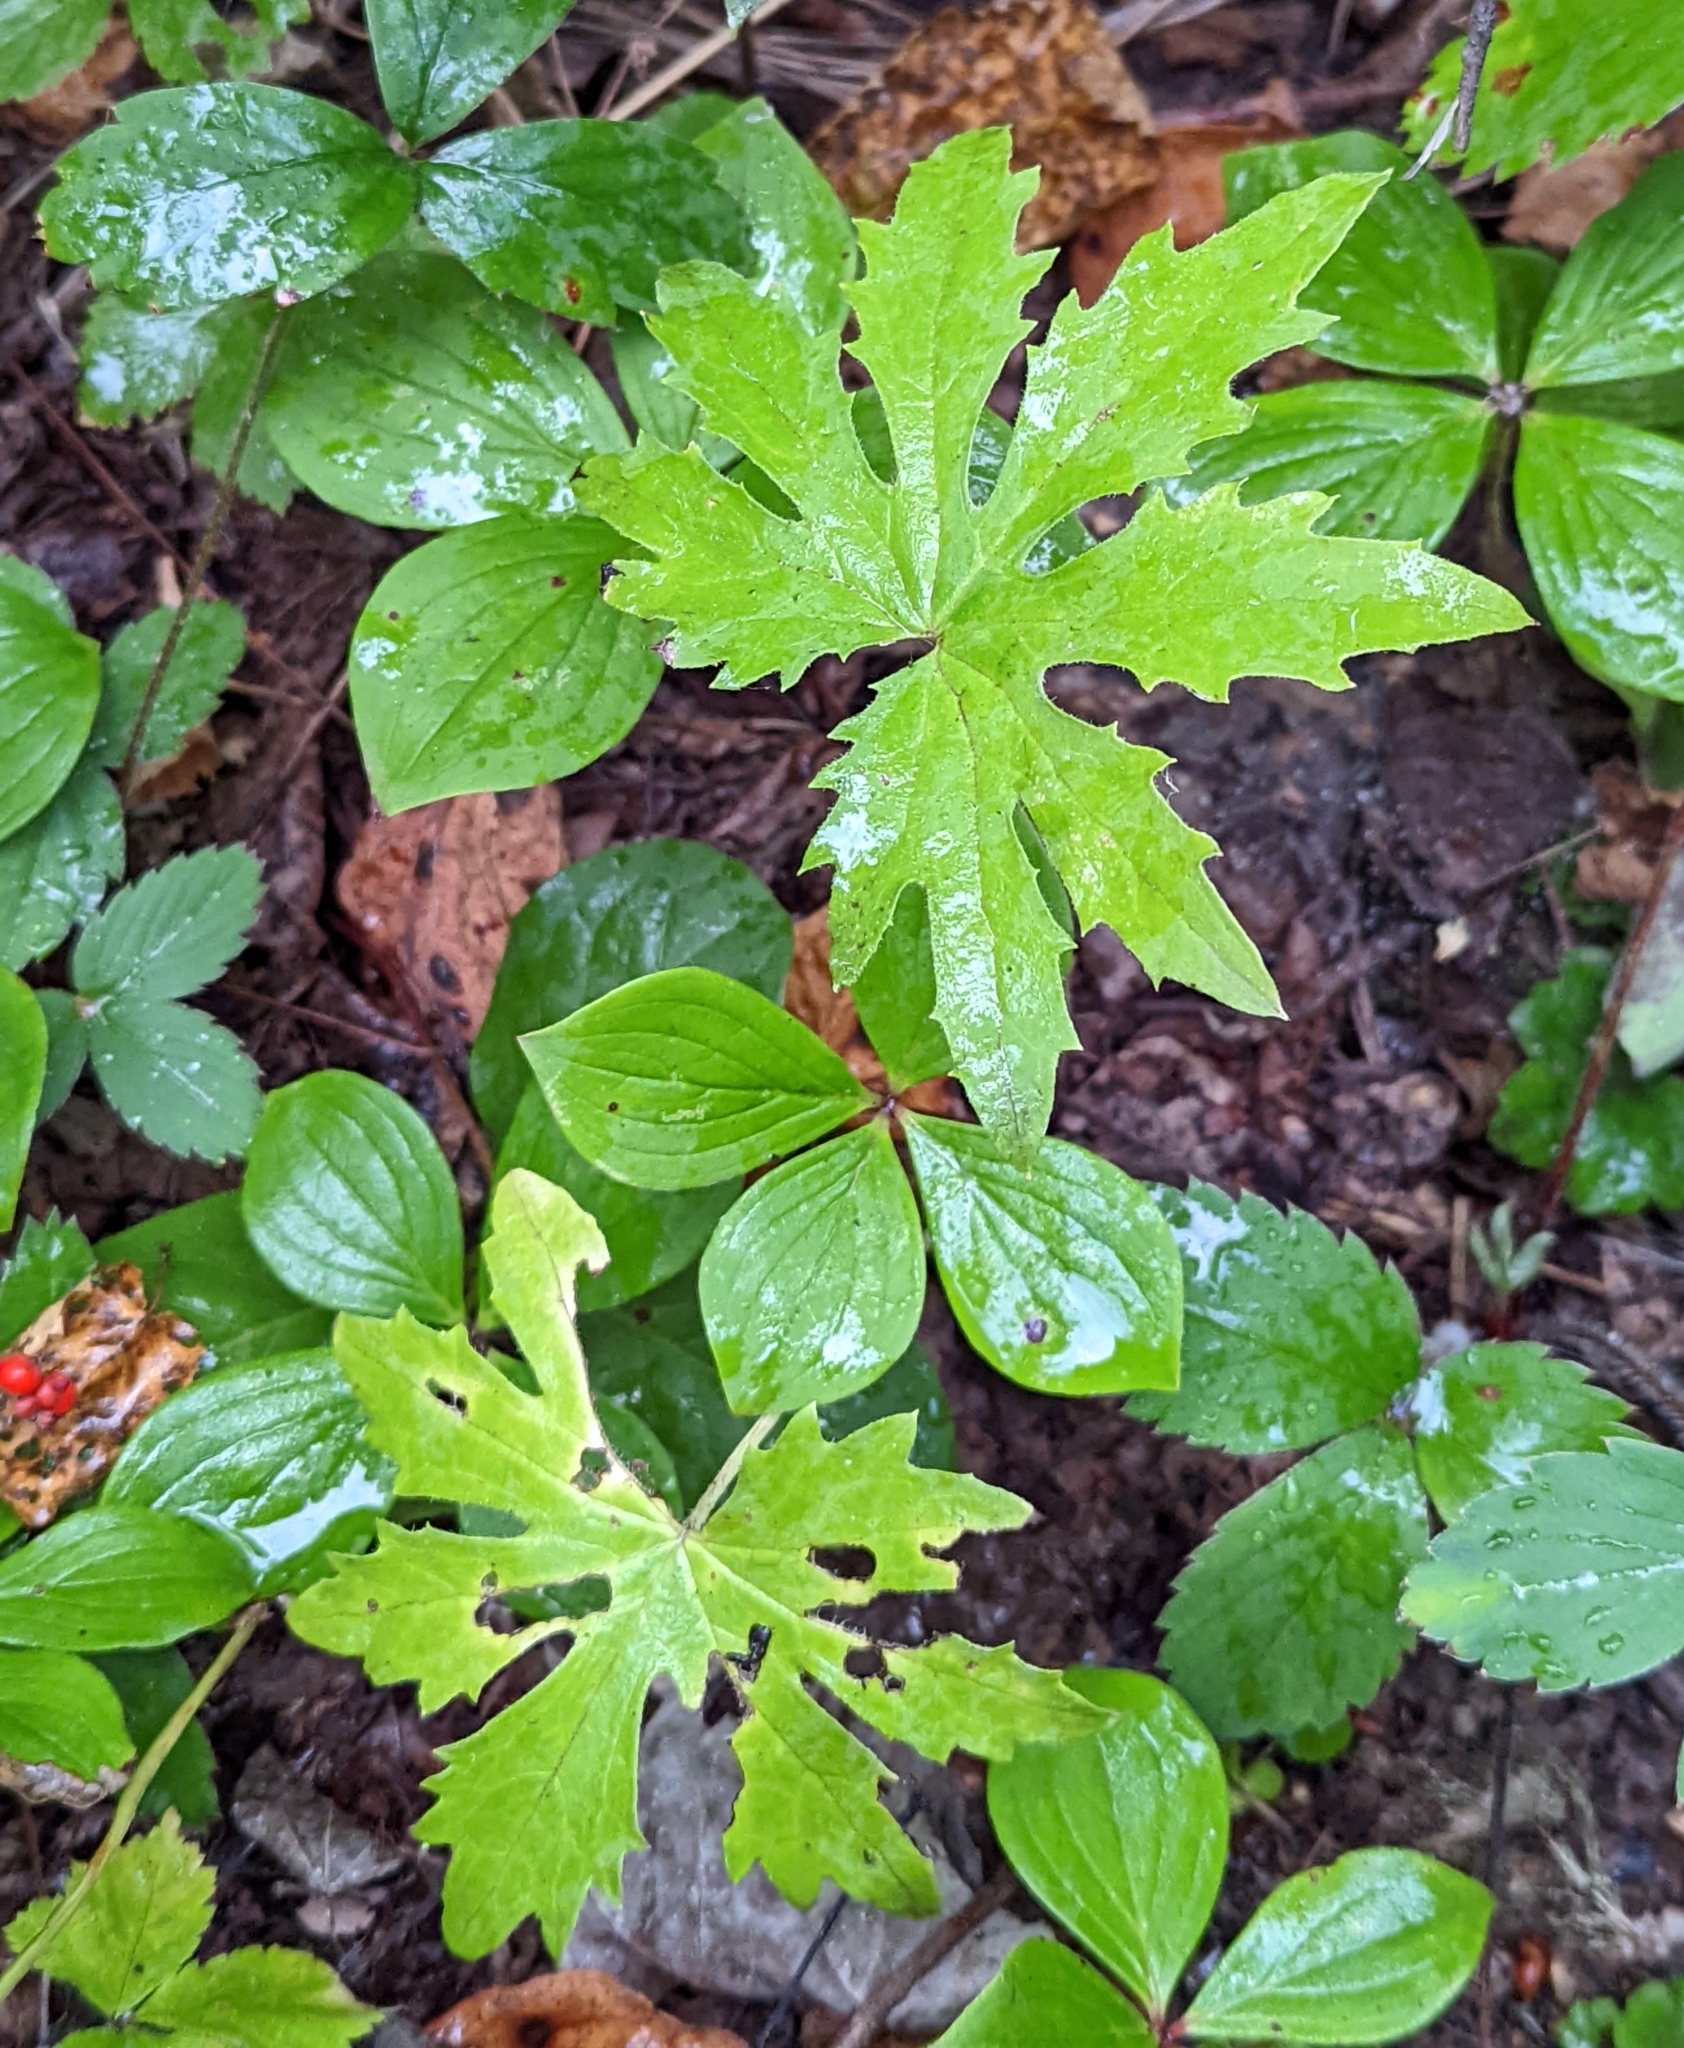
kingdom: Plantae
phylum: Tracheophyta
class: Magnoliopsida
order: Asterales
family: Asteraceae
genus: Petasites
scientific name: Petasites frigidus
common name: Arctic butterbur
